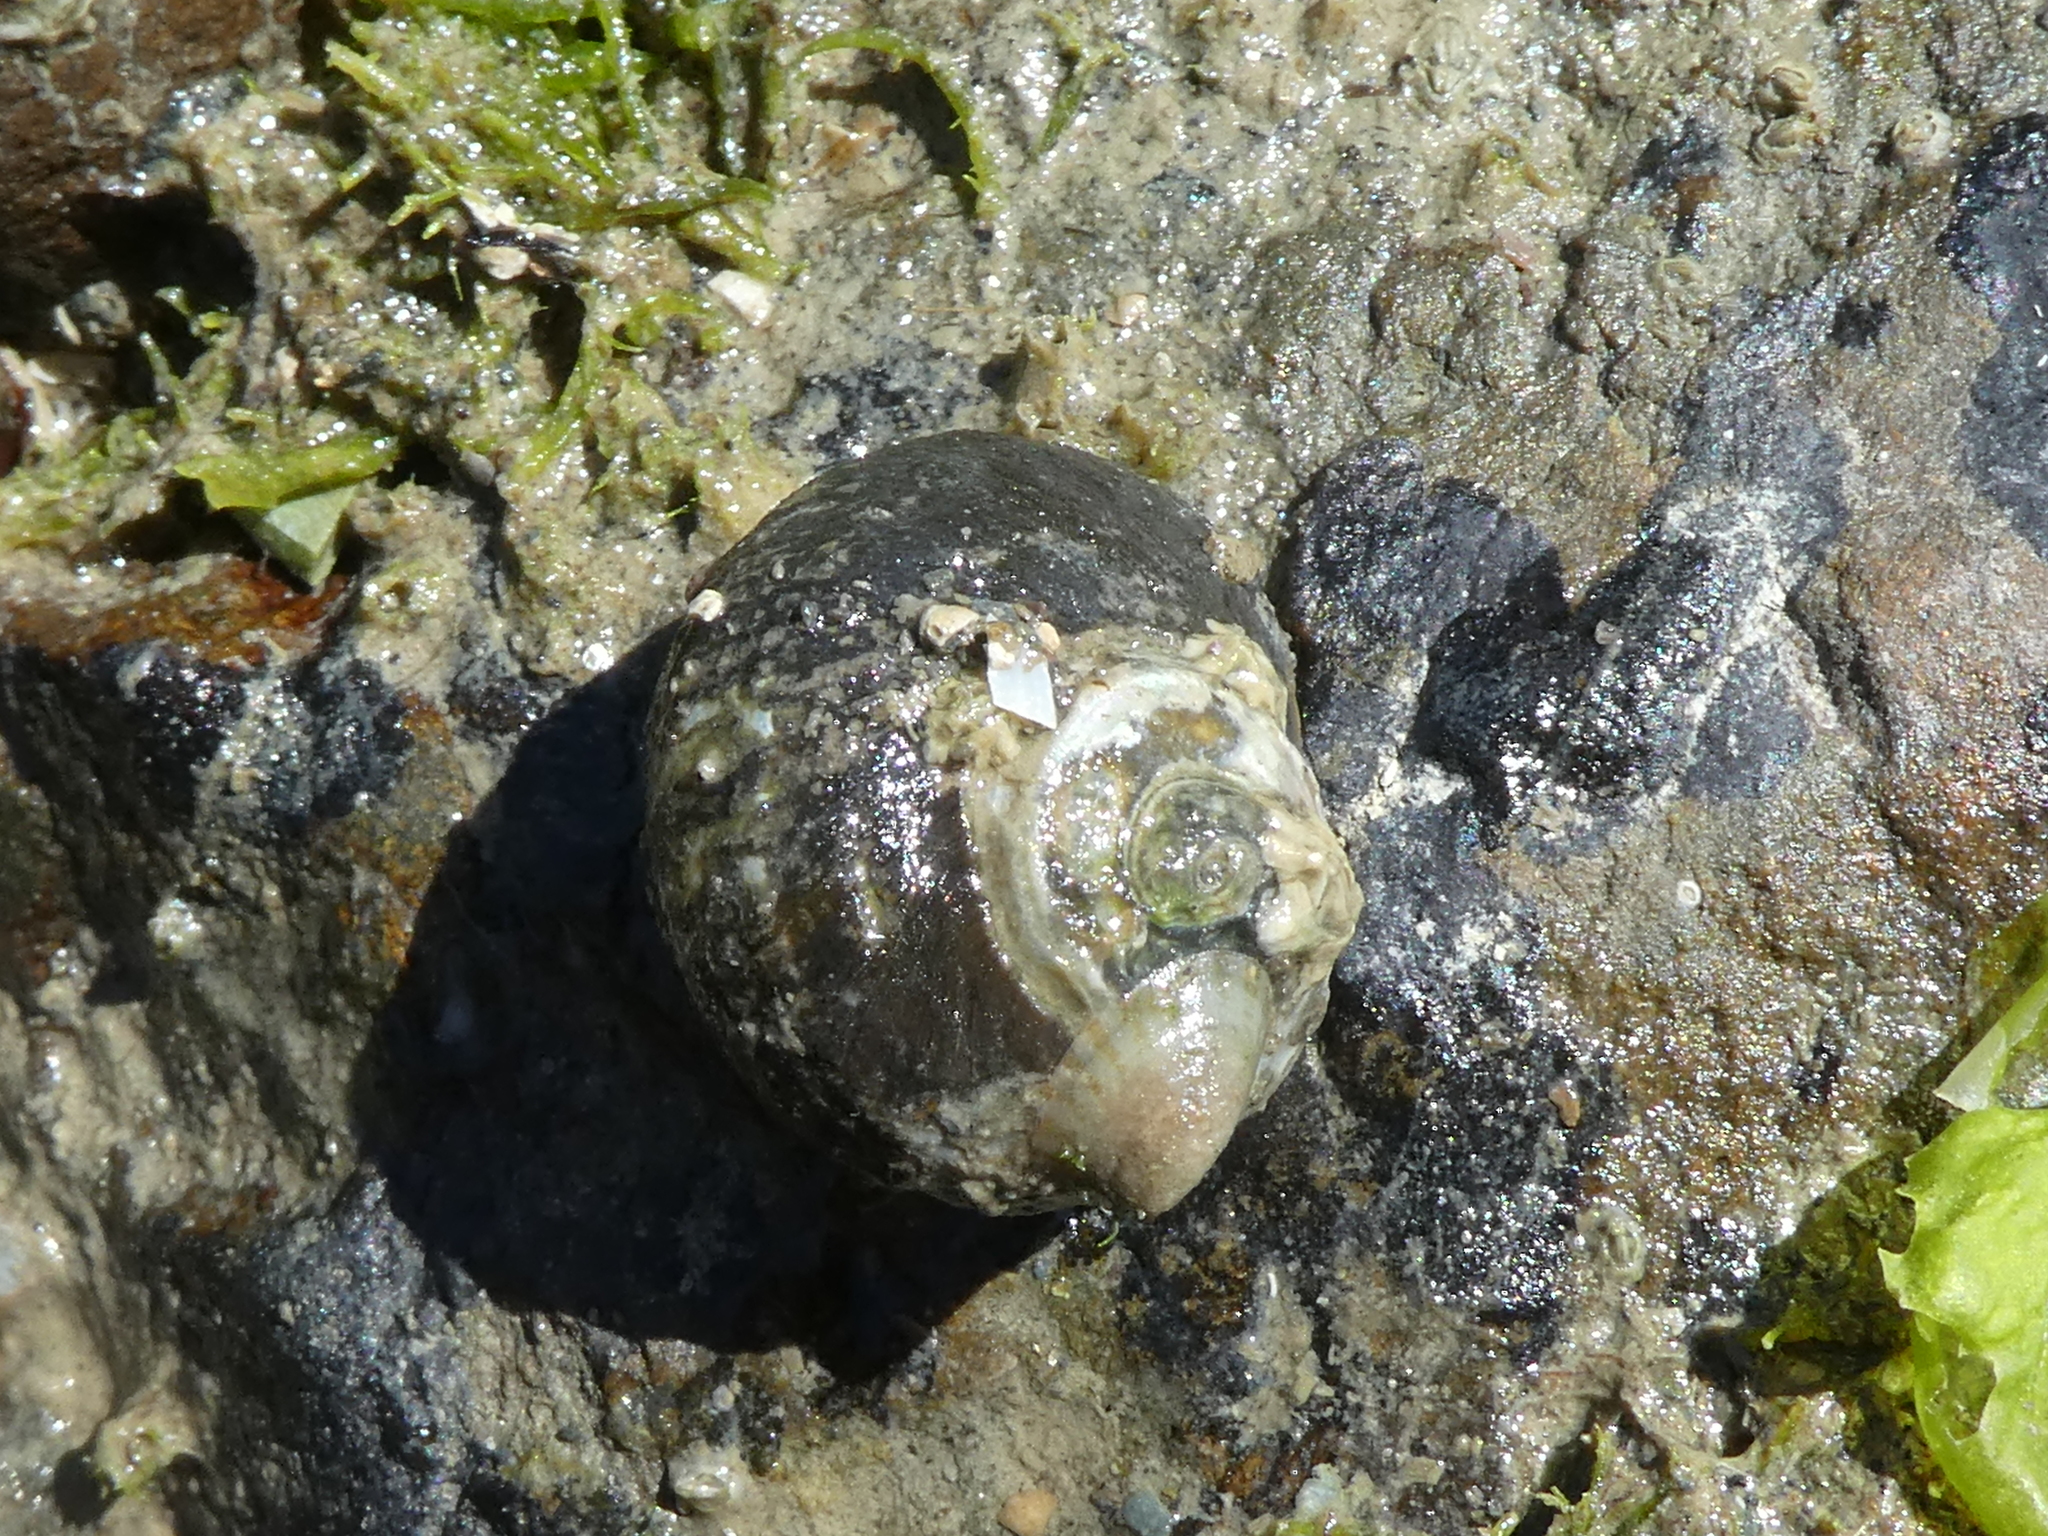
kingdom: Animalia
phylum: Mollusca
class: Gastropoda
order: Trochida
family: Turbinidae
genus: Lunella
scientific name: Lunella smaragda
